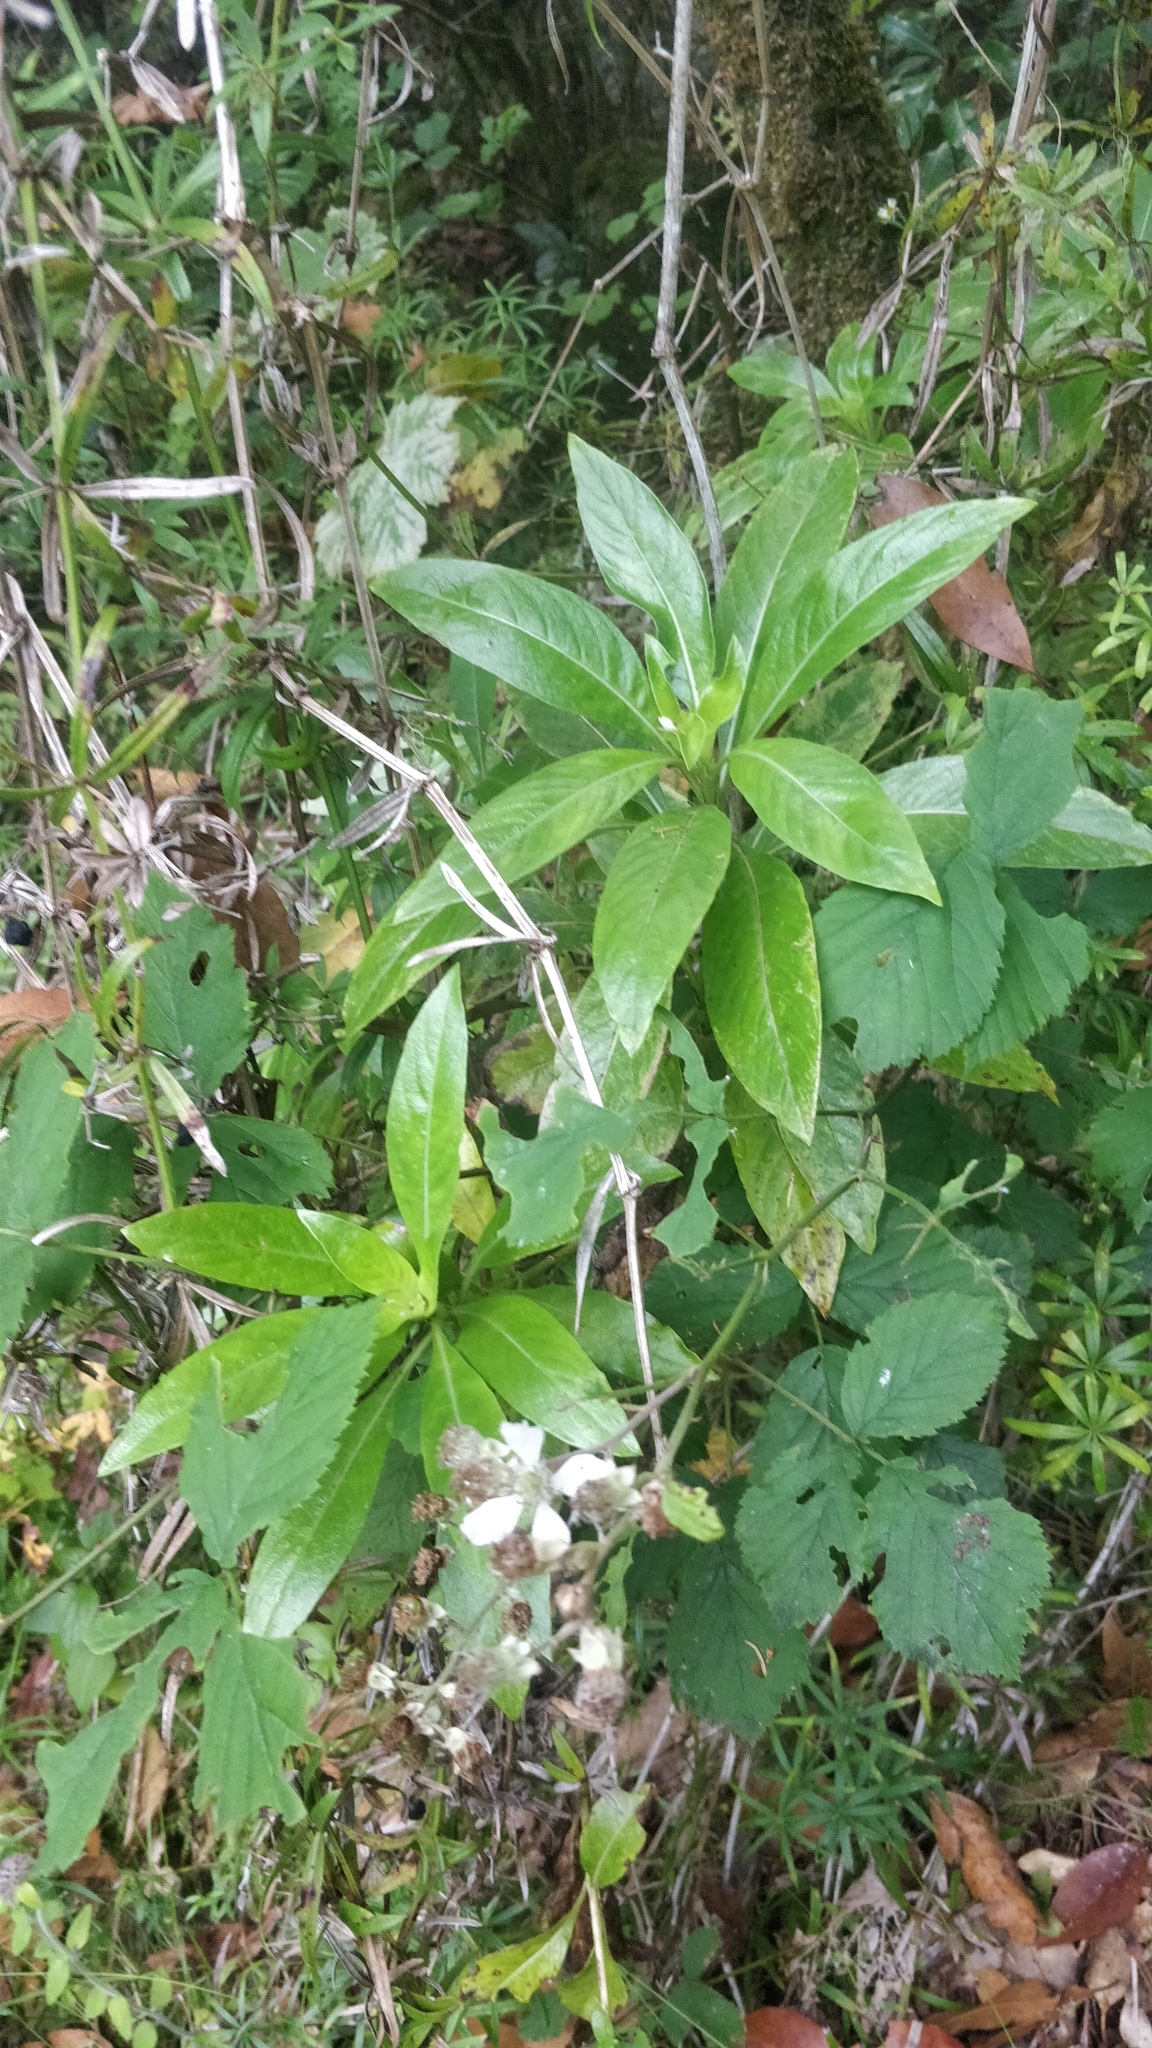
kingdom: Plantae
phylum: Tracheophyta
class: Magnoliopsida
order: Gentianales
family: Rubiaceae
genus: Phyllis
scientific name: Phyllis nobla
